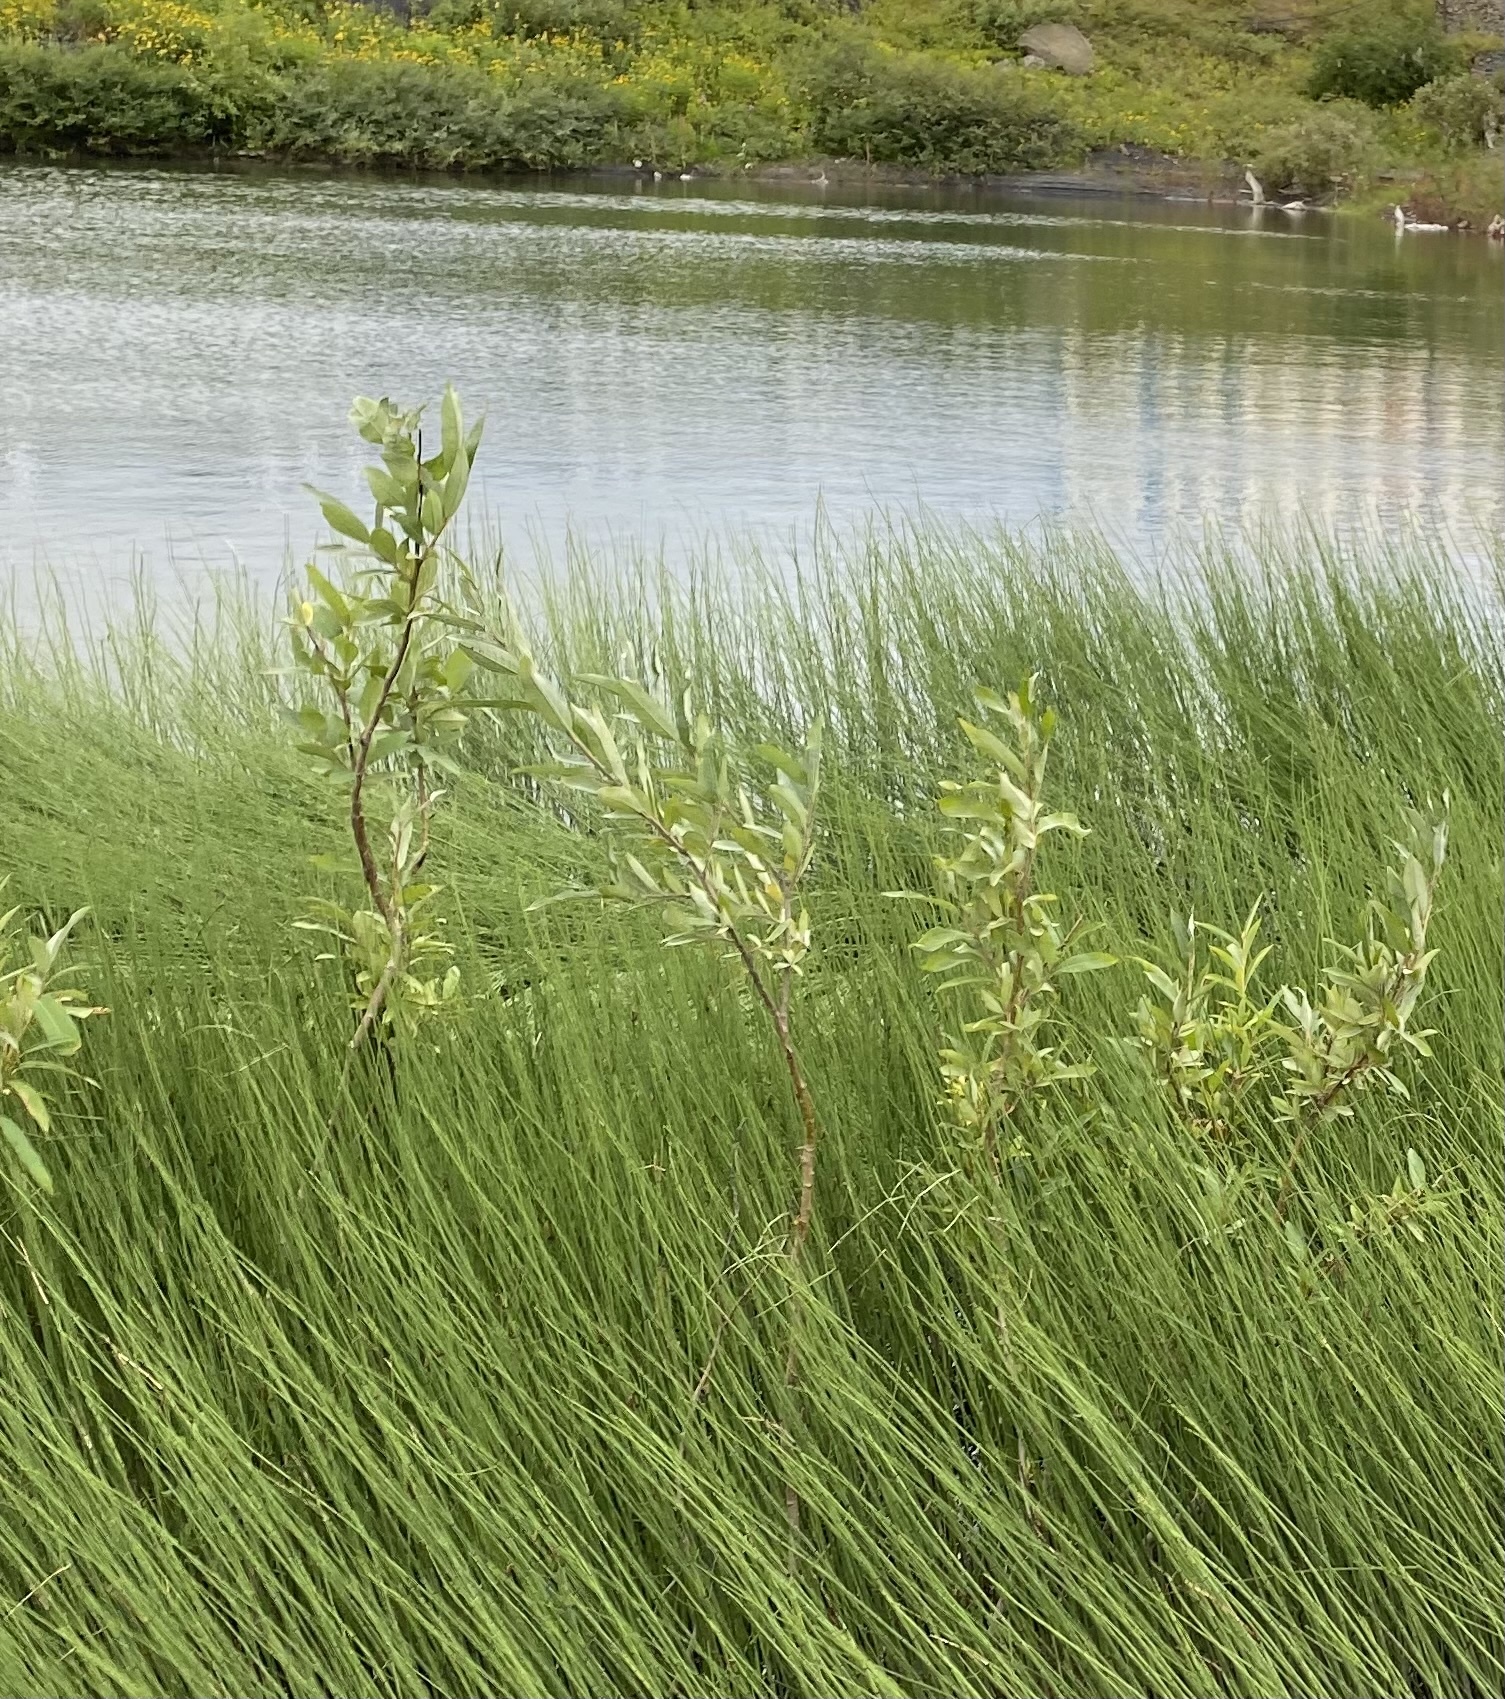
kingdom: Plantae
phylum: Tracheophyta
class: Magnoliopsida
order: Malpighiales
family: Salicaceae
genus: Salix
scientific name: Salix viminalis
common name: Osier
